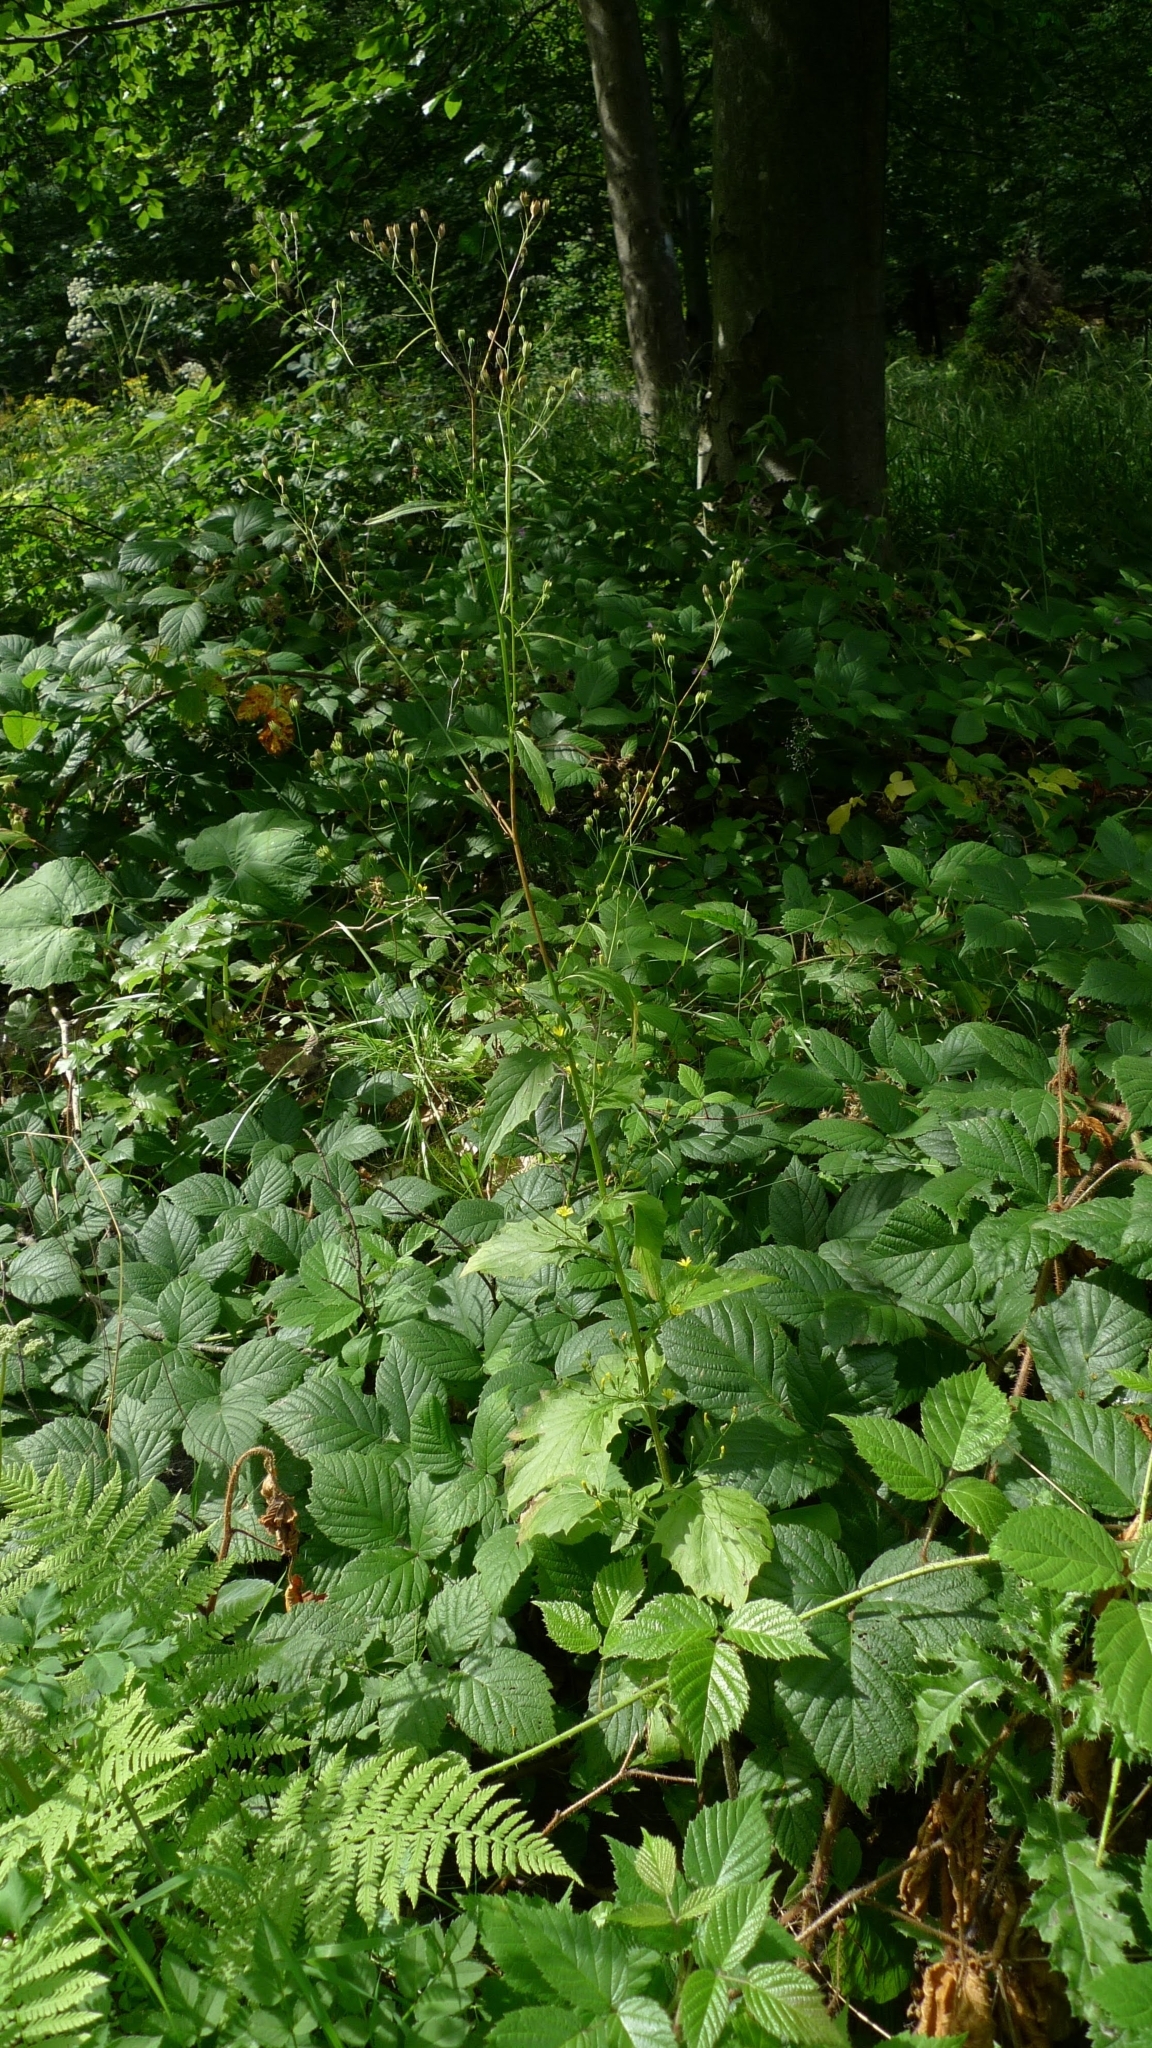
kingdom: Plantae
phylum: Tracheophyta
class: Magnoliopsida
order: Asterales
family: Asteraceae
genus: Lapsana
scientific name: Lapsana communis
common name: Nipplewort
